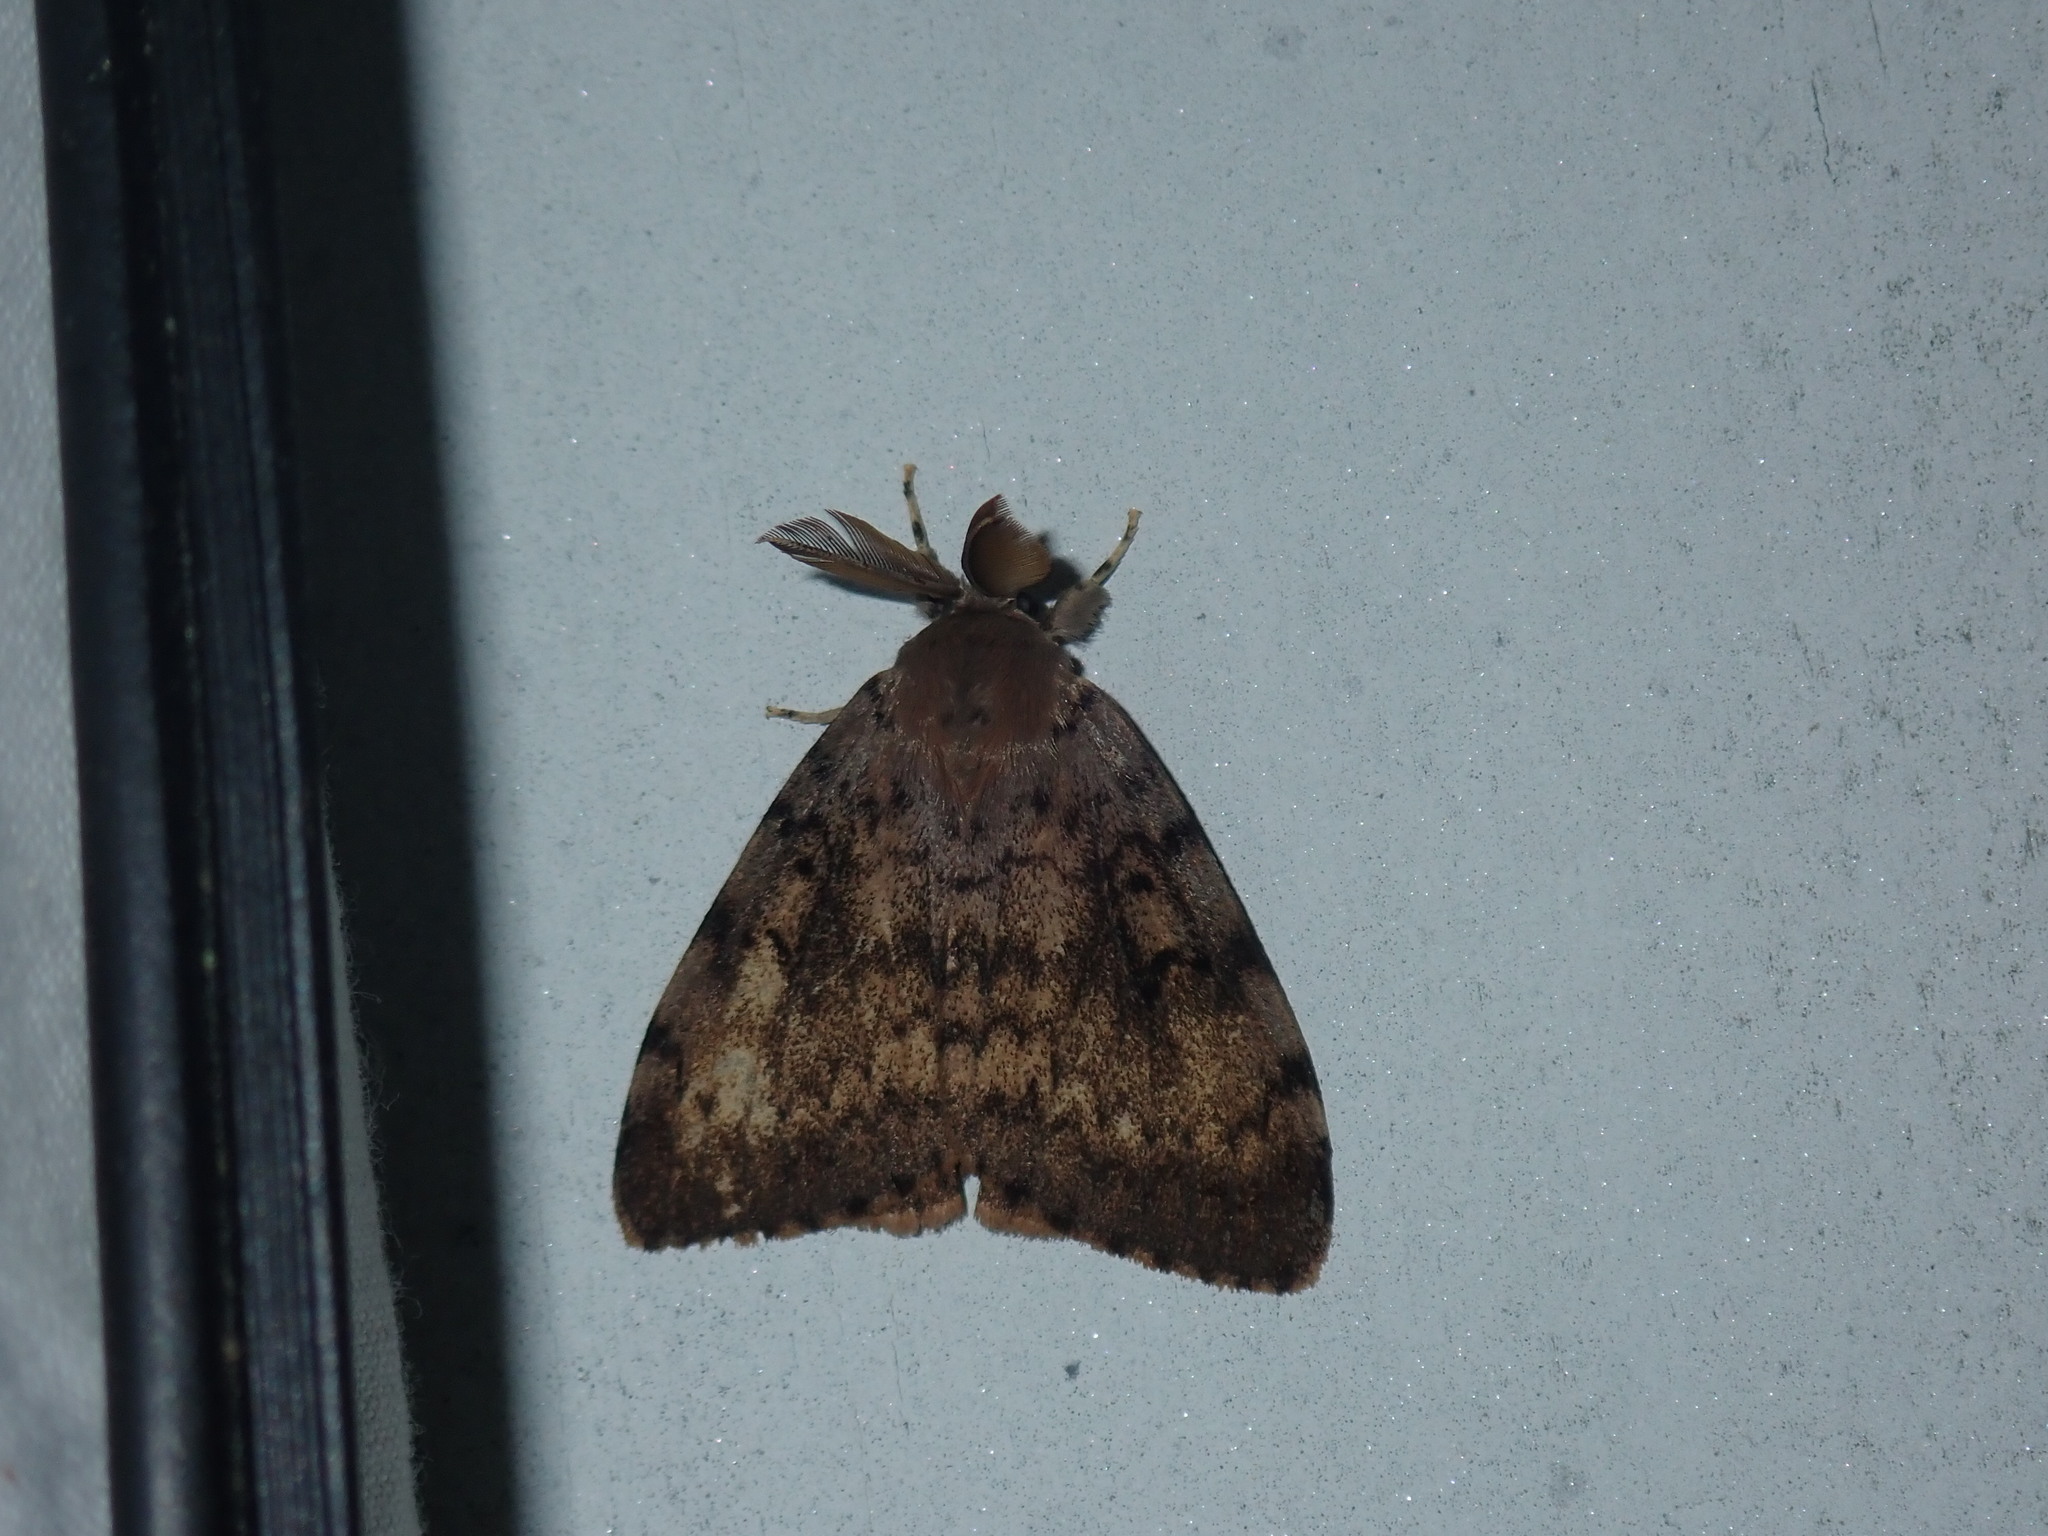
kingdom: Animalia
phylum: Arthropoda
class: Insecta
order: Lepidoptera
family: Erebidae
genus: Lymantria
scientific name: Lymantria dispar
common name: Gypsy moth
